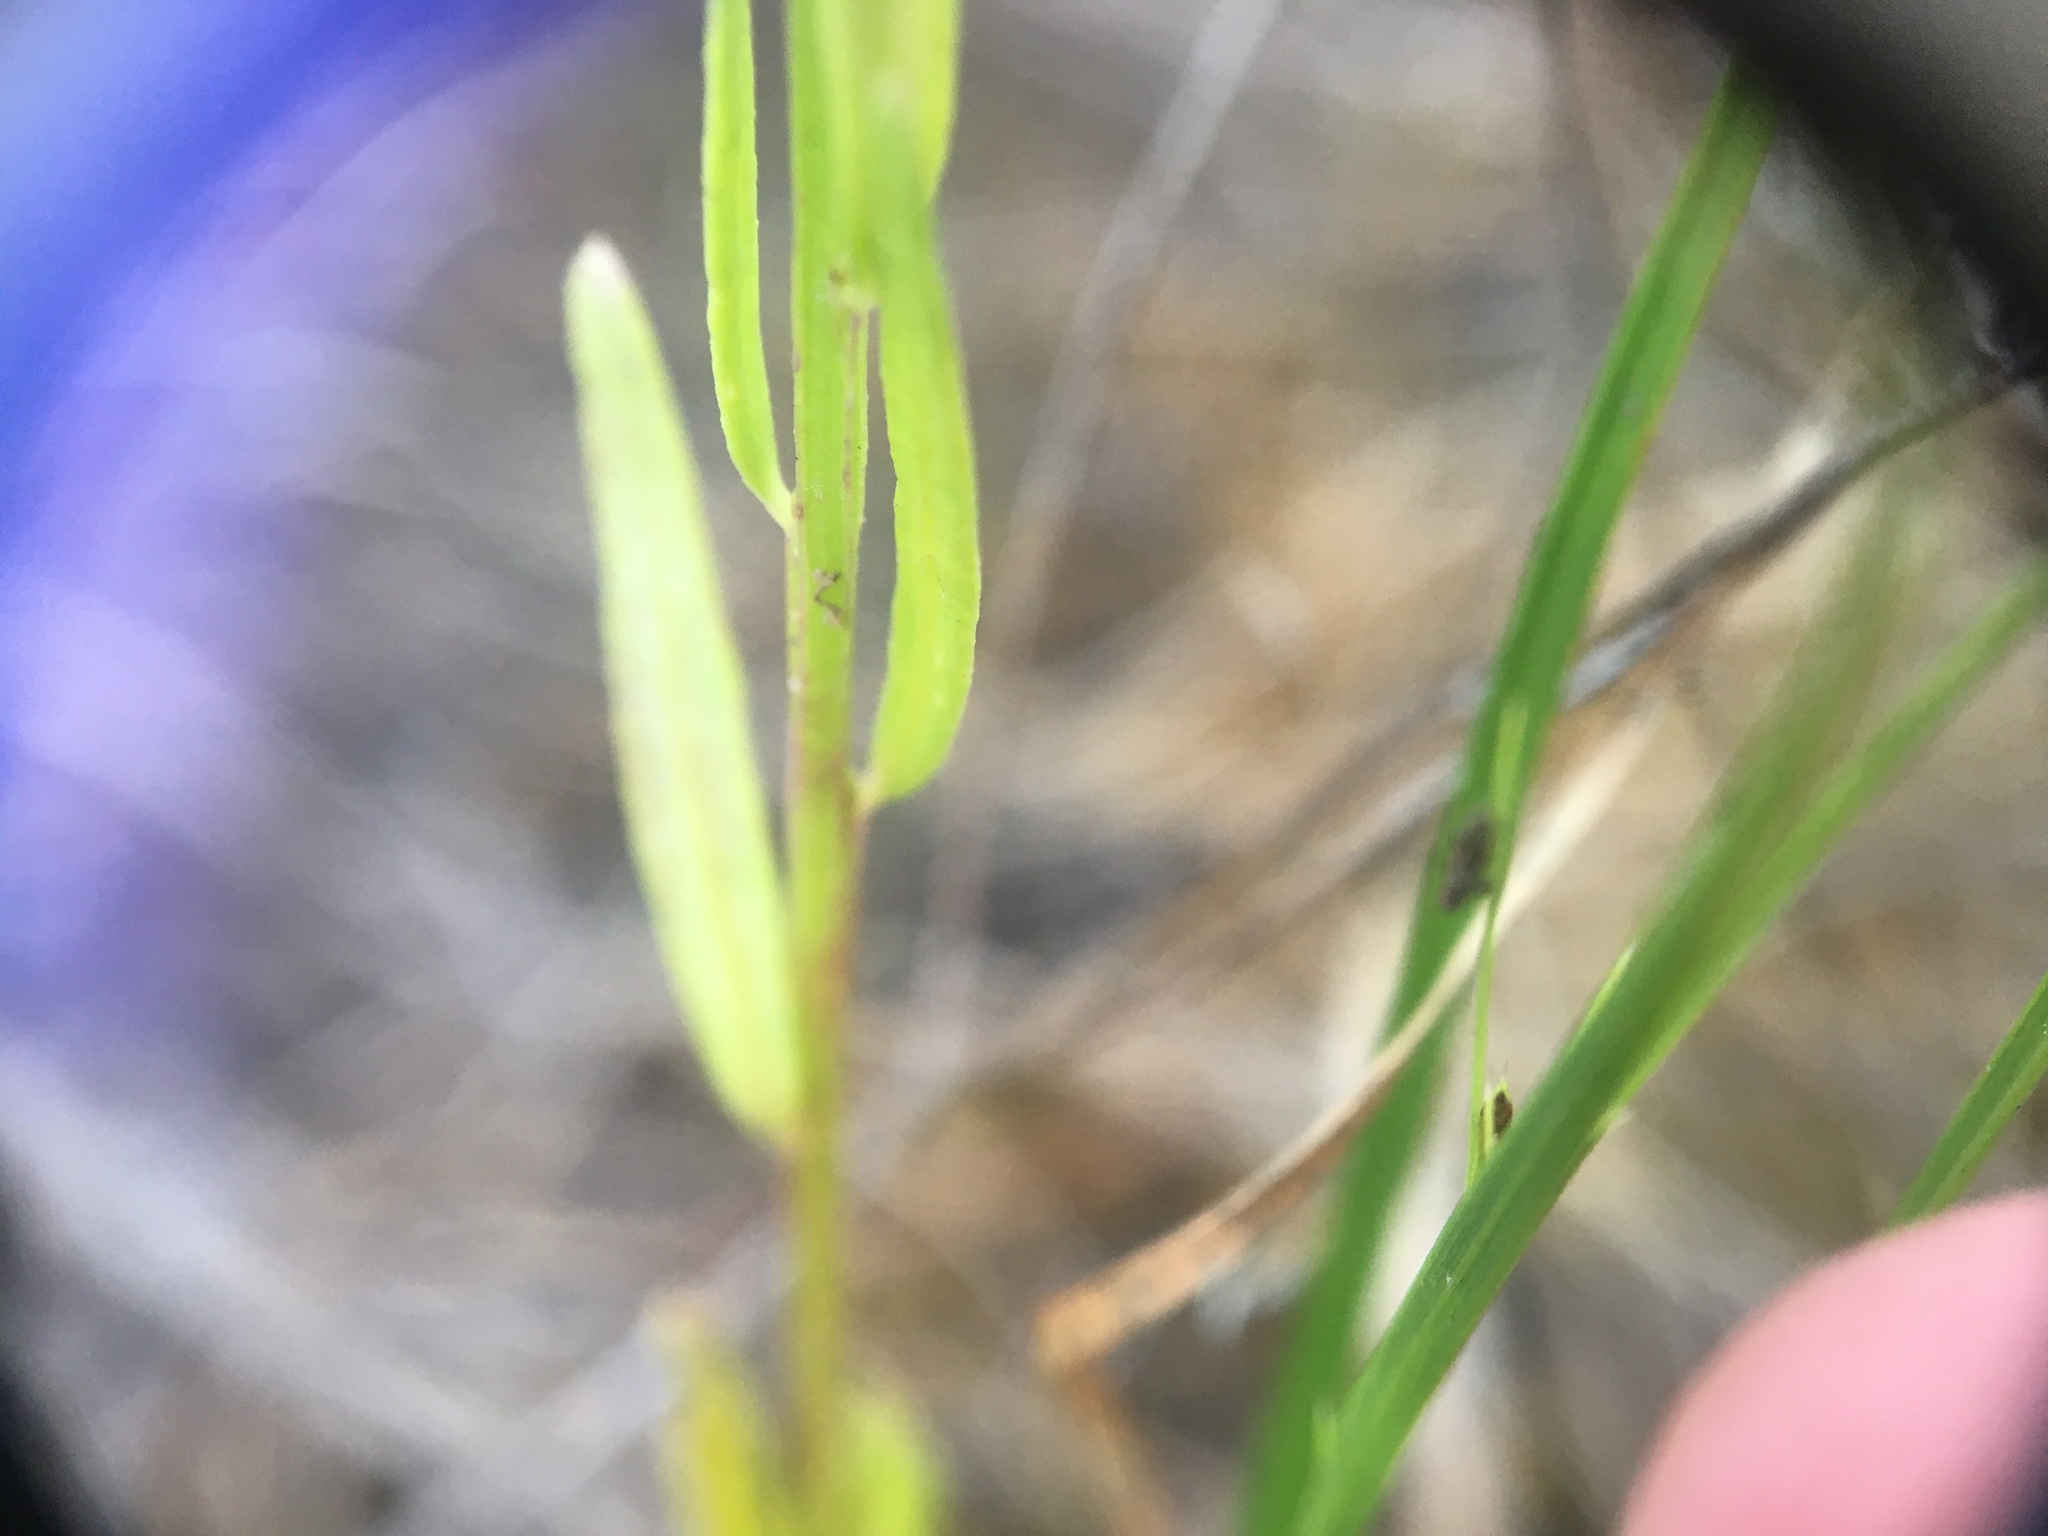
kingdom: Plantae
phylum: Tracheophyta
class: Magnoliopsida
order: Fabales
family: Polygalaceae
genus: Polygala
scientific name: Polygala curtissii
